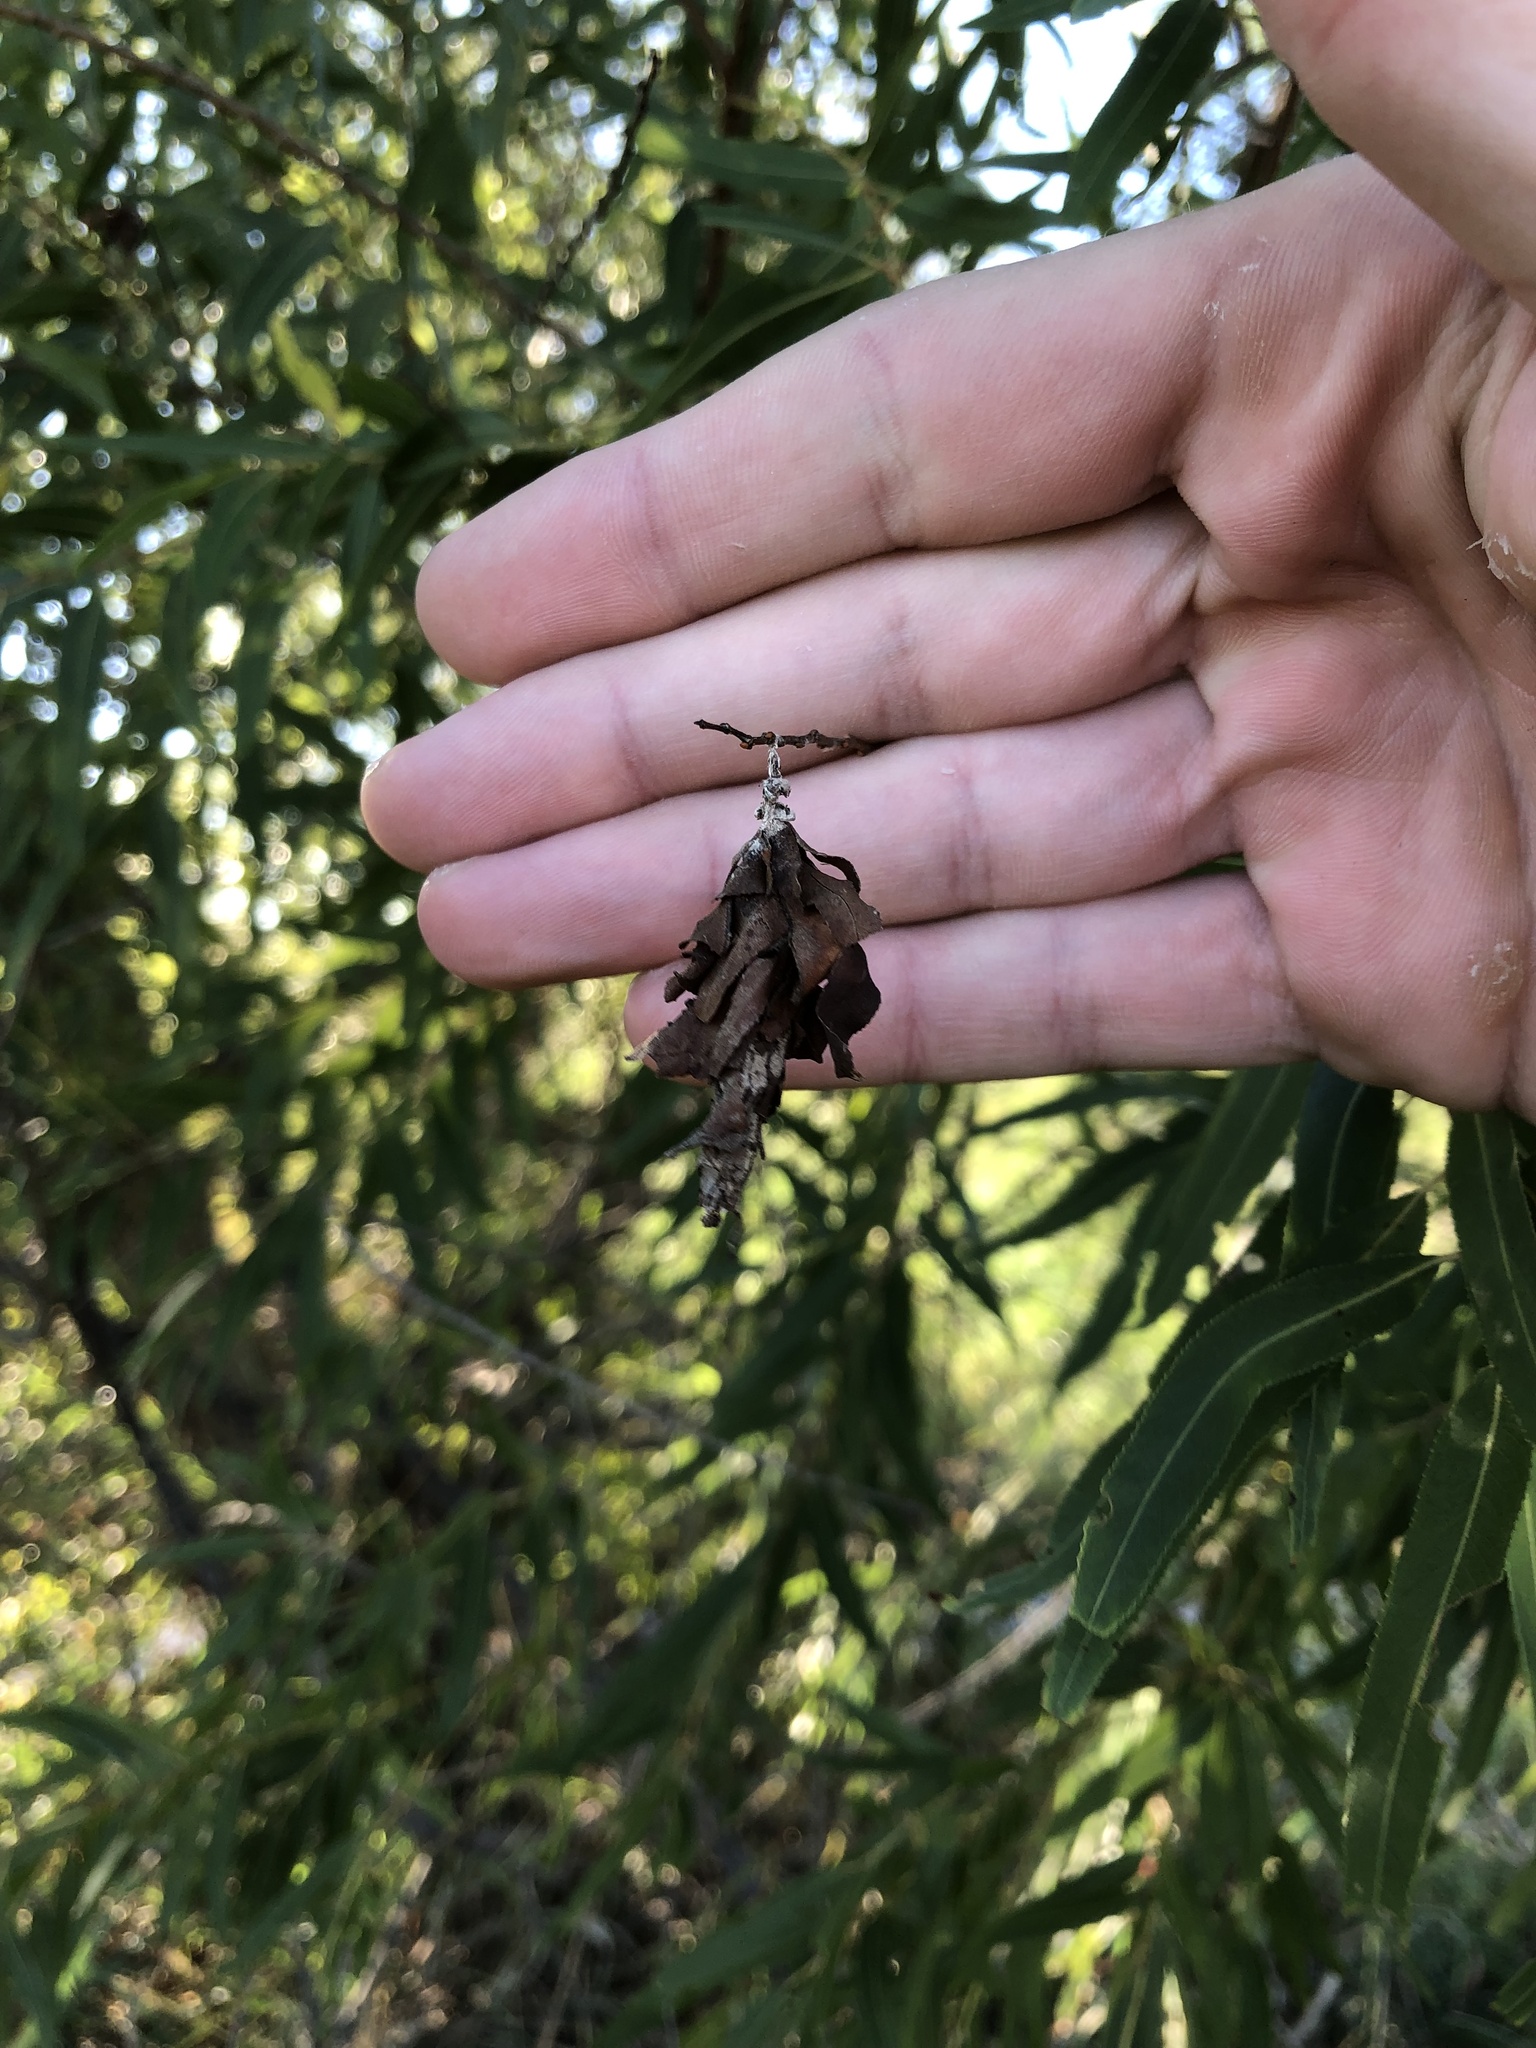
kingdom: Animalia
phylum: Arthropoda
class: Insecta
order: Lepidoptera
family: Psychidae
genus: Thyridopteryx
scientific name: Thyridopteryx ephemeraeformis
